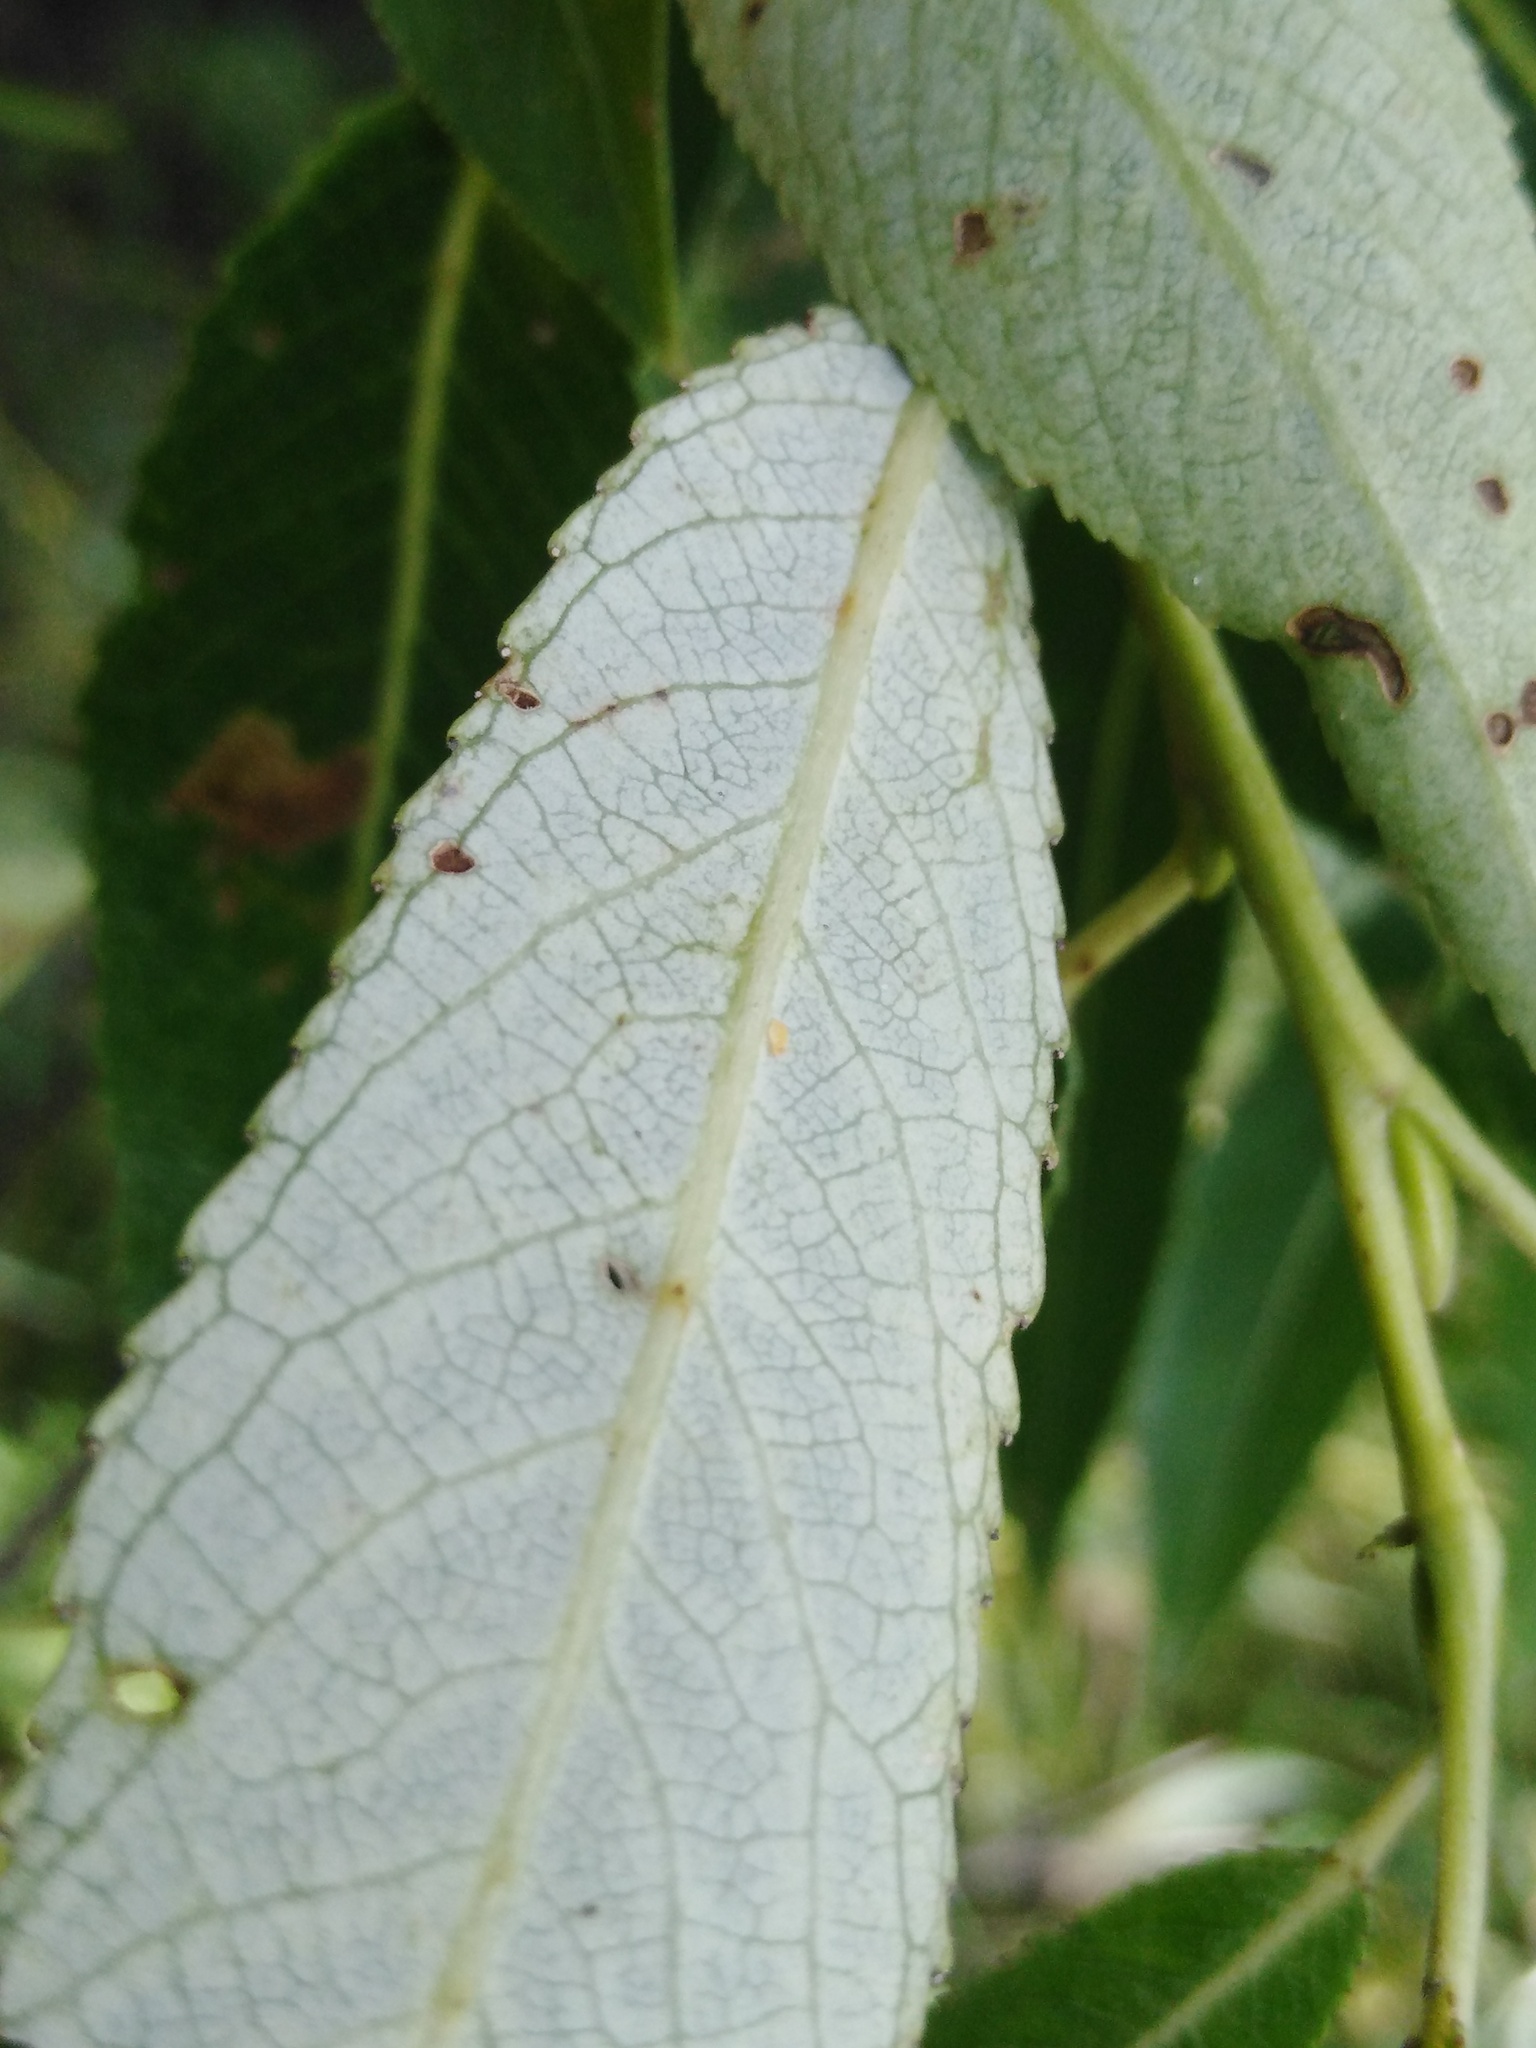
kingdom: Plantae
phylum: Tracheophyta
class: Magnoliopsida
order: Malpighiales
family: Salicaceae
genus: Salix
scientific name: Salix alba
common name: White willow
